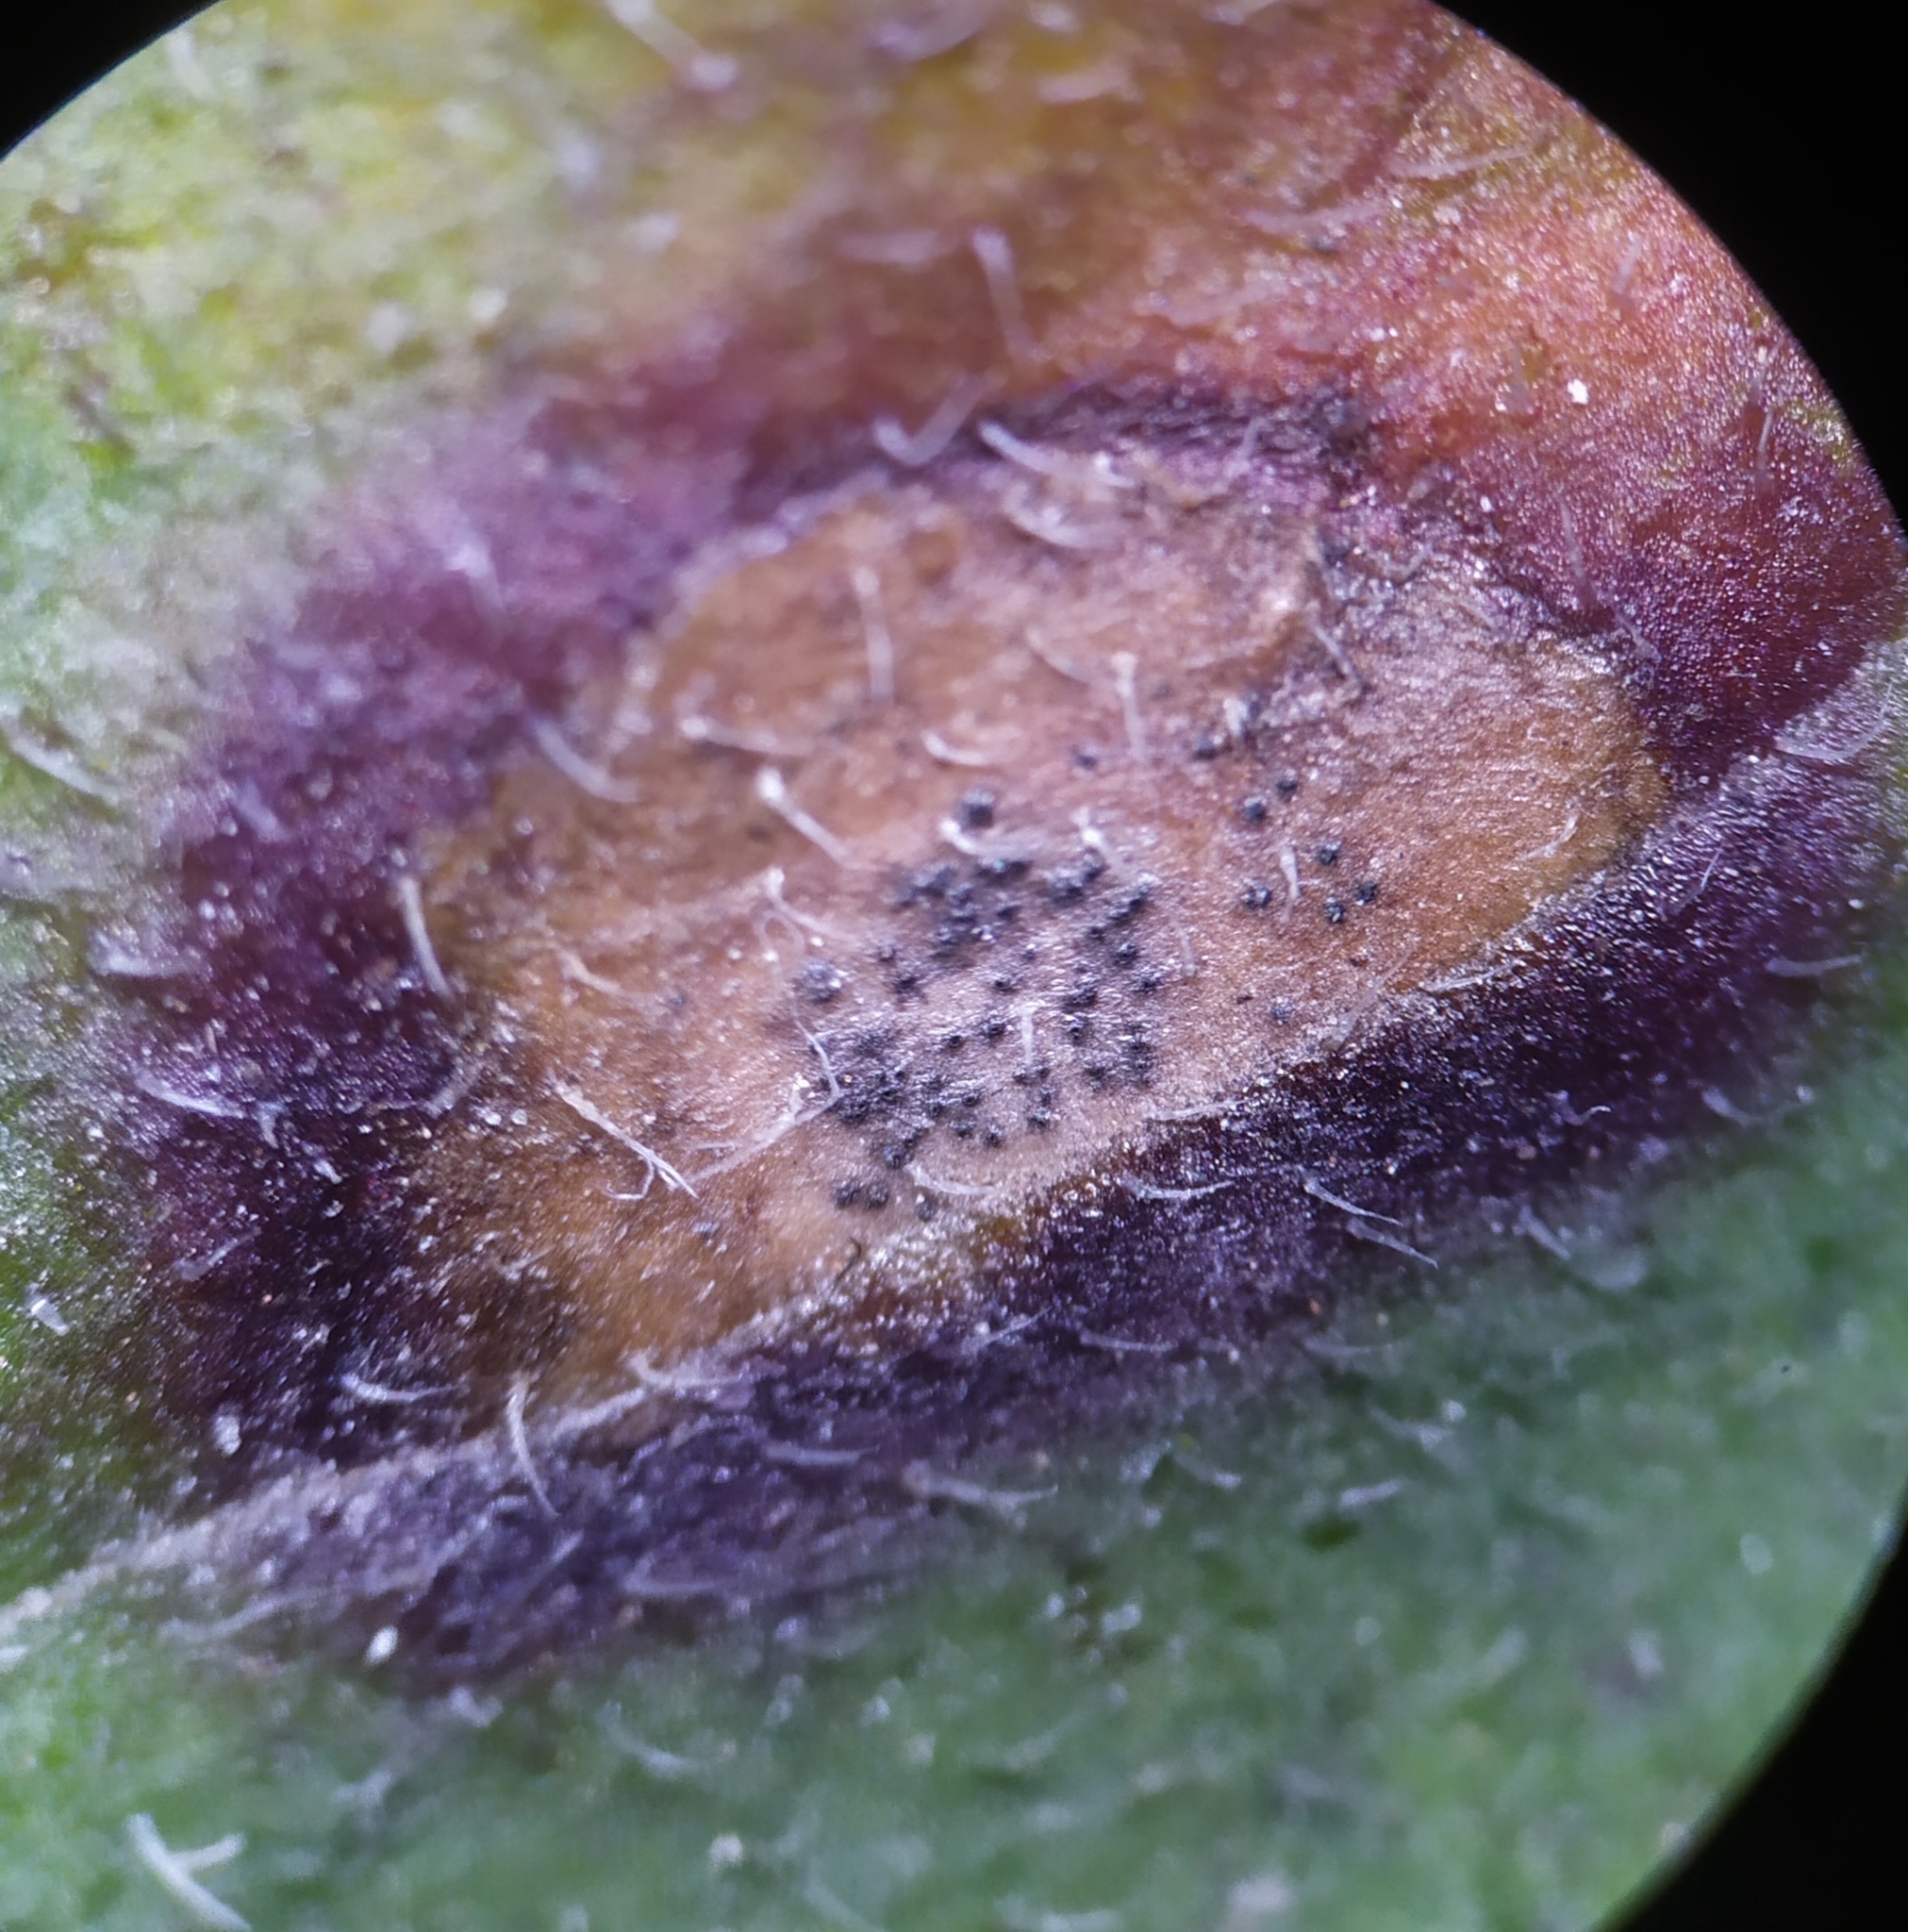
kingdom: Fungi
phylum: Ascomycota
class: Dothideomycetes
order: Capnodiales
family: Mycosphaerellaceae
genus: Septoria
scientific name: Septoria erigerontis
